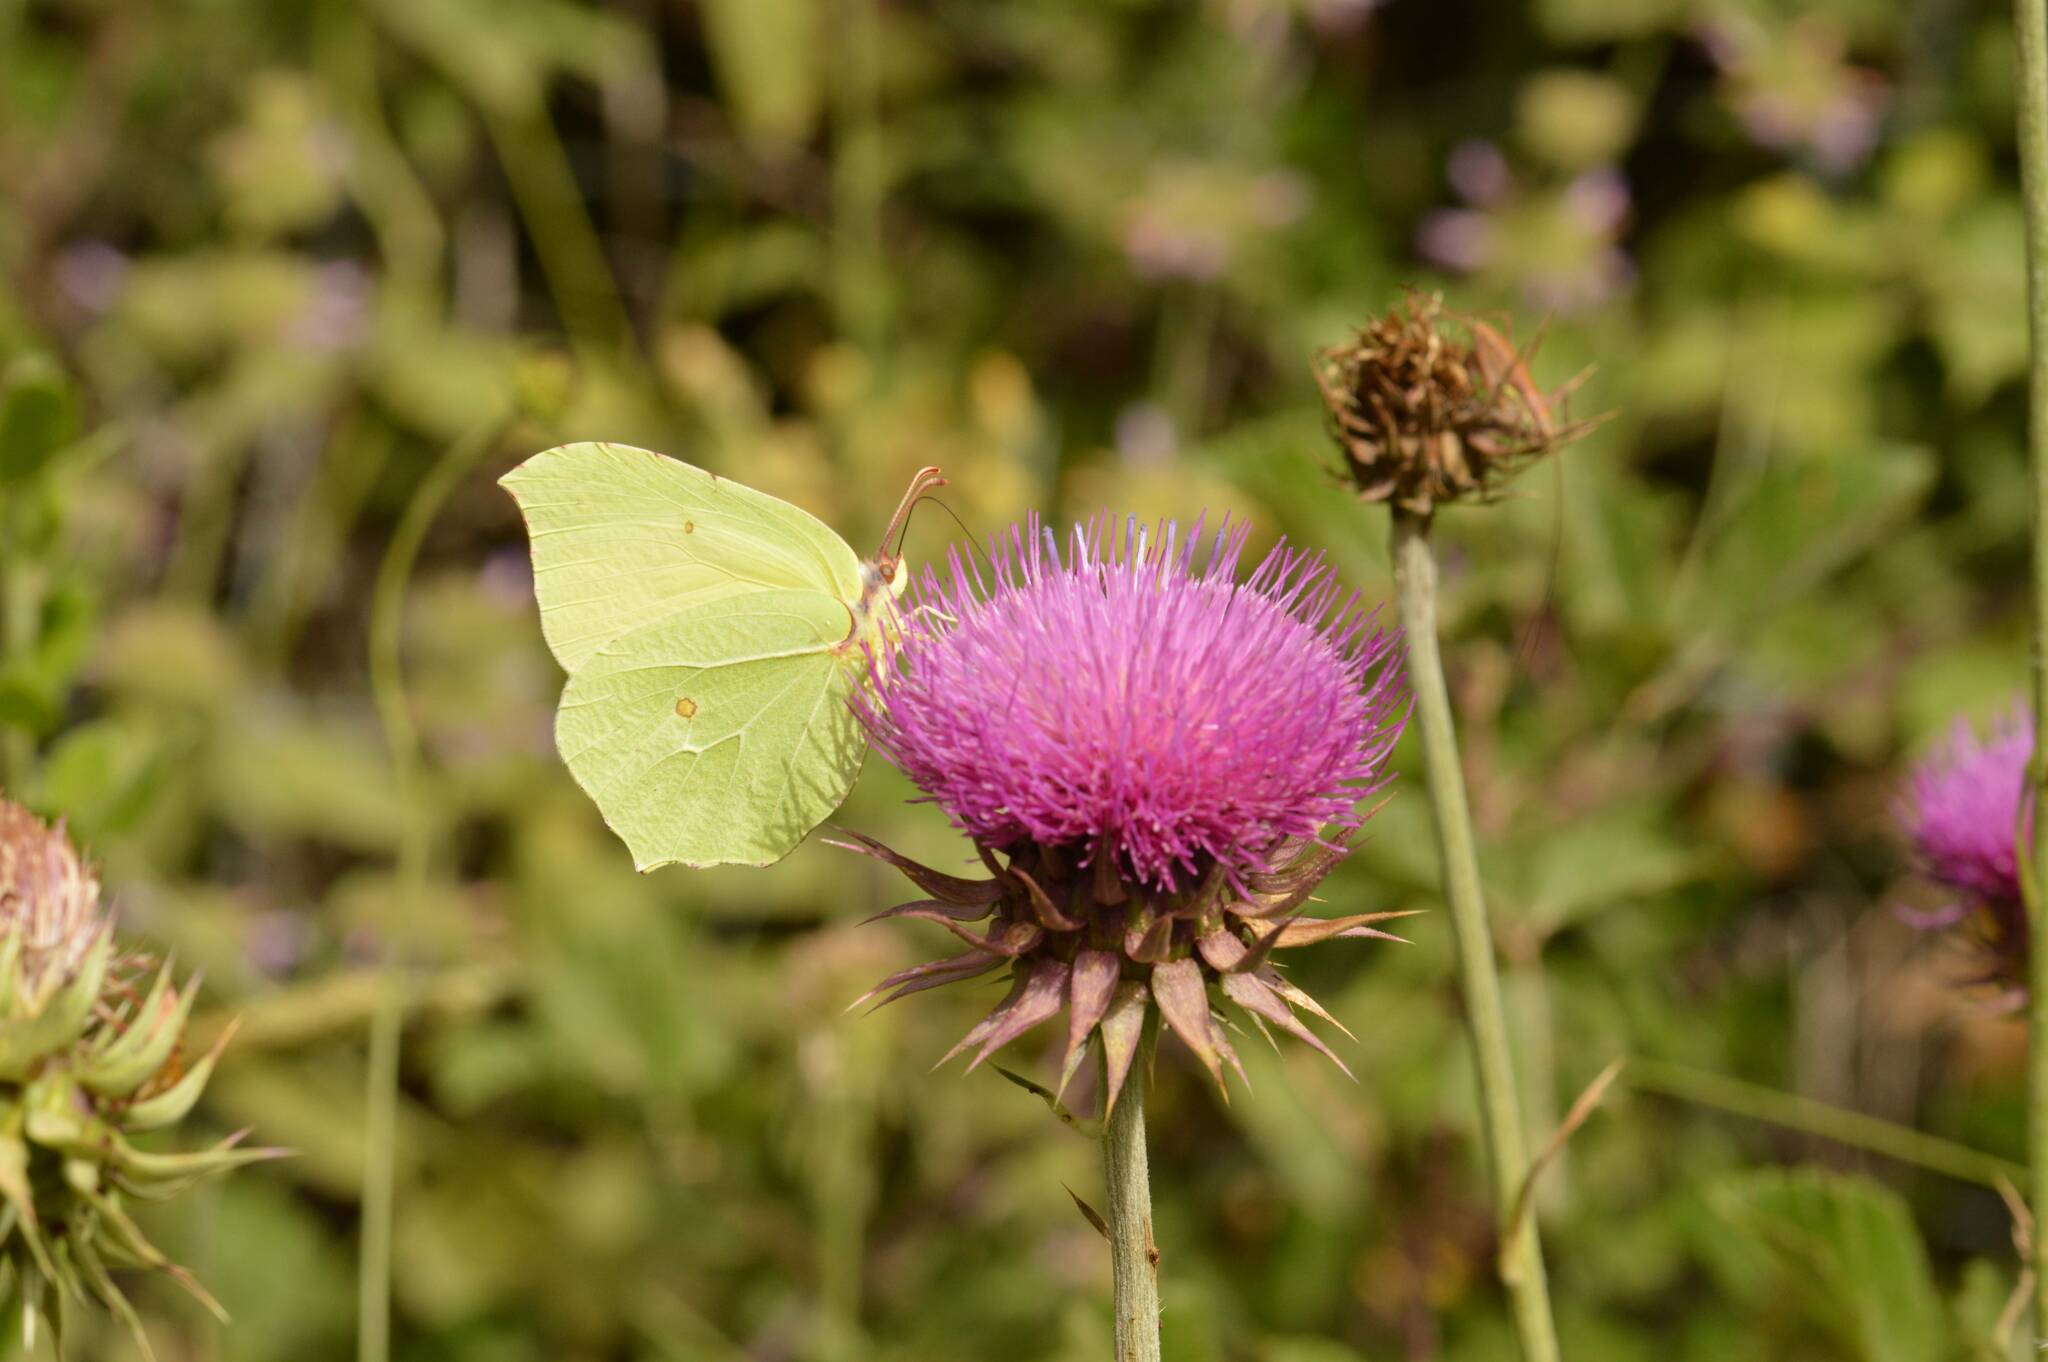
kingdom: Animalia
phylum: Arthropoda
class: Insecta
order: Lepidoptera
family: Pieridae
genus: Gonepteryx
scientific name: Gonepteryx cleopatra
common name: Cleopatra
